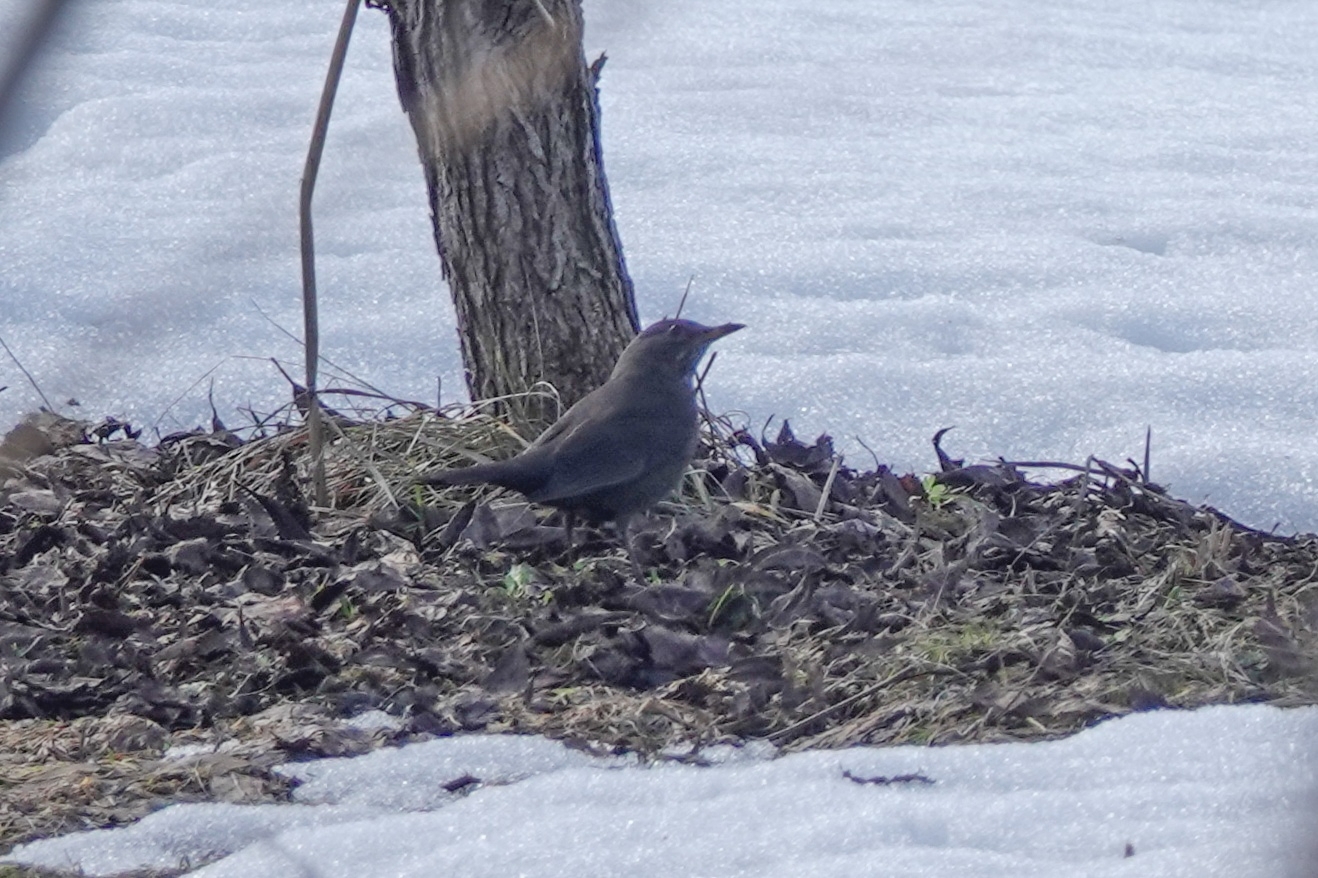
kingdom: Animalia
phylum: Chordata
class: Aves
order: Passeriformes
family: Turdidae
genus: Turdus
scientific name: Turdus merula
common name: Common blackbird
